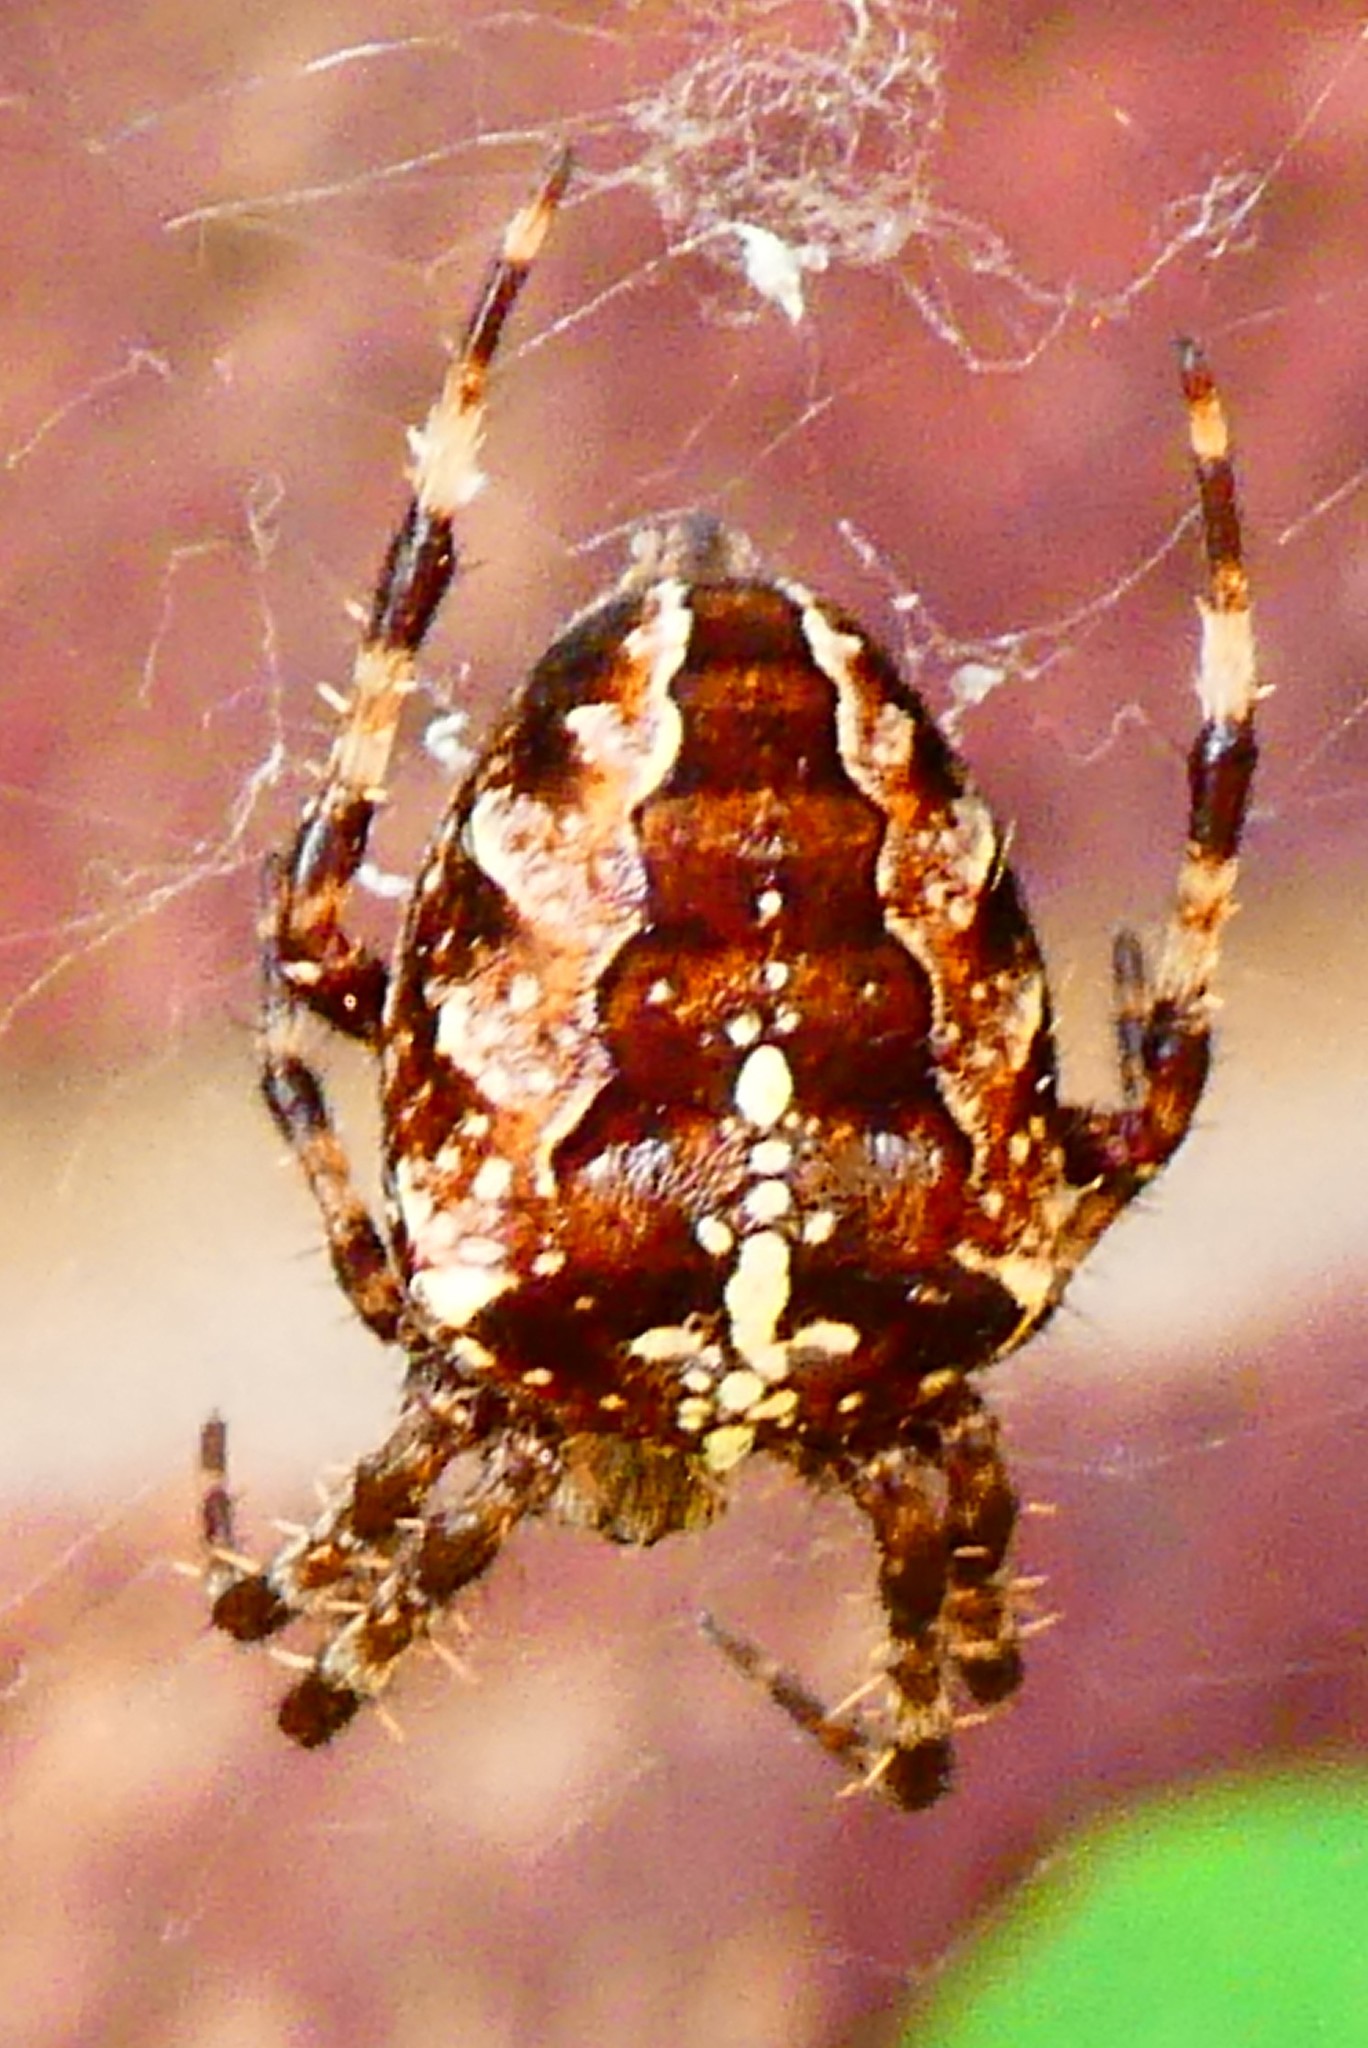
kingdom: Animalia
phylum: Arthropoda
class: Arachnida
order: Araneae
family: Araneidae
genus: Araneus
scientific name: Araneus diadematus
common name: Cross orbweaver
